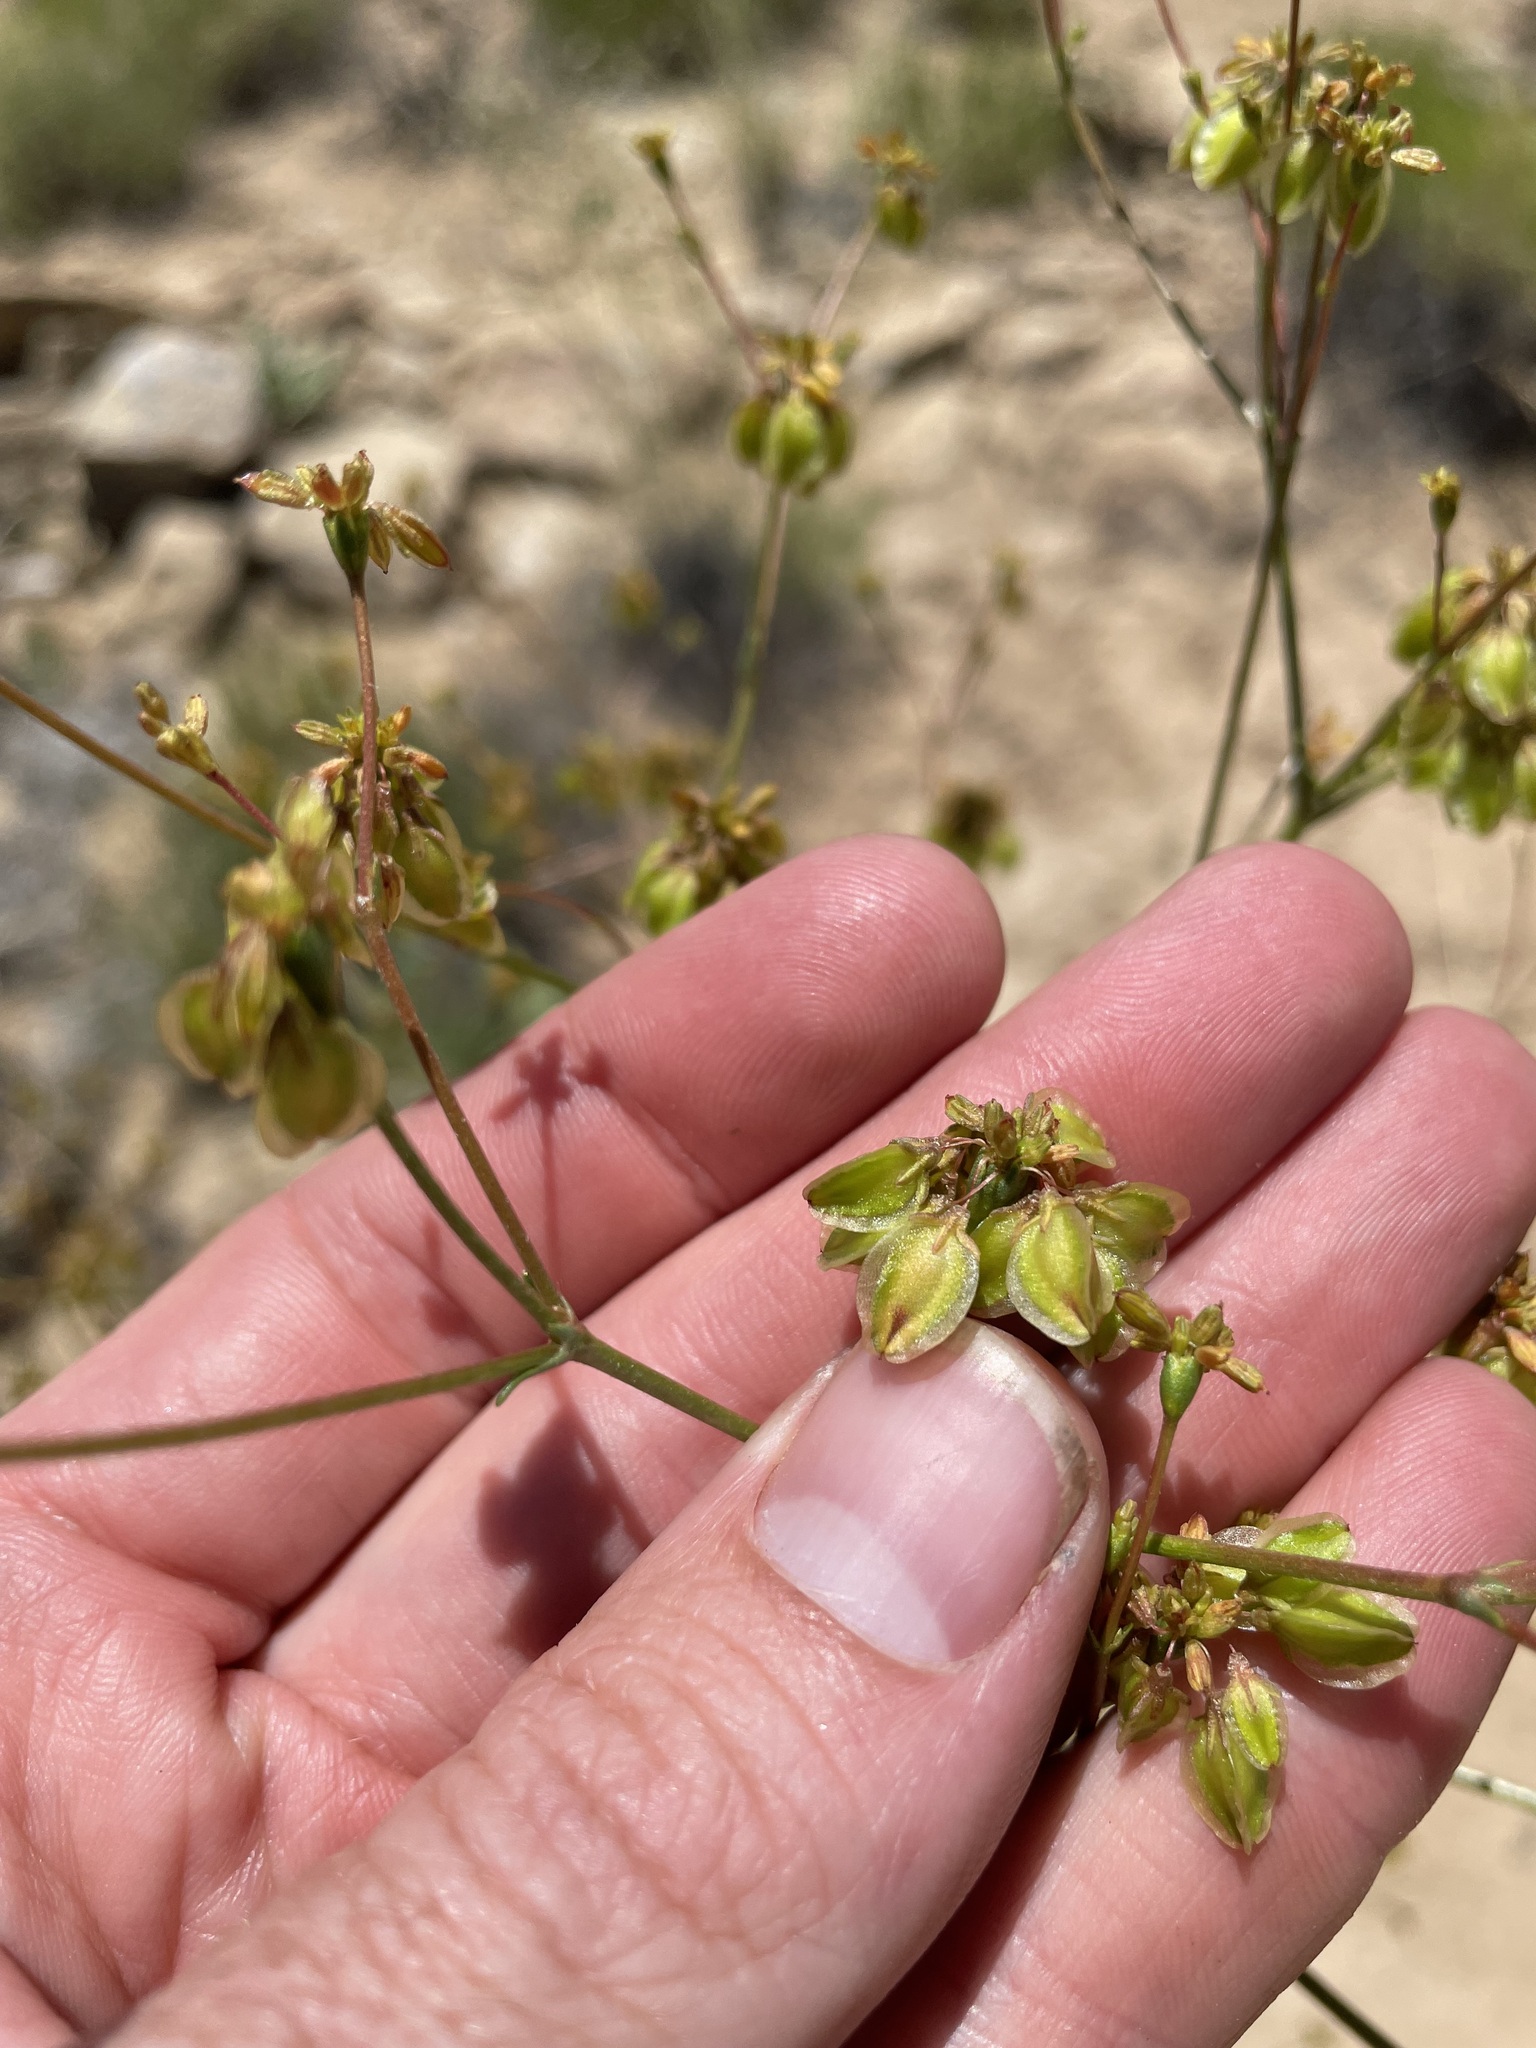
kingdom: Plantae
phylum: Tracheophyta
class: Magnoliopsida
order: Caryophyllales
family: Polygonaceae
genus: Eriogonum
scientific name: Eriogonum alatum
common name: Winged eriogonum
